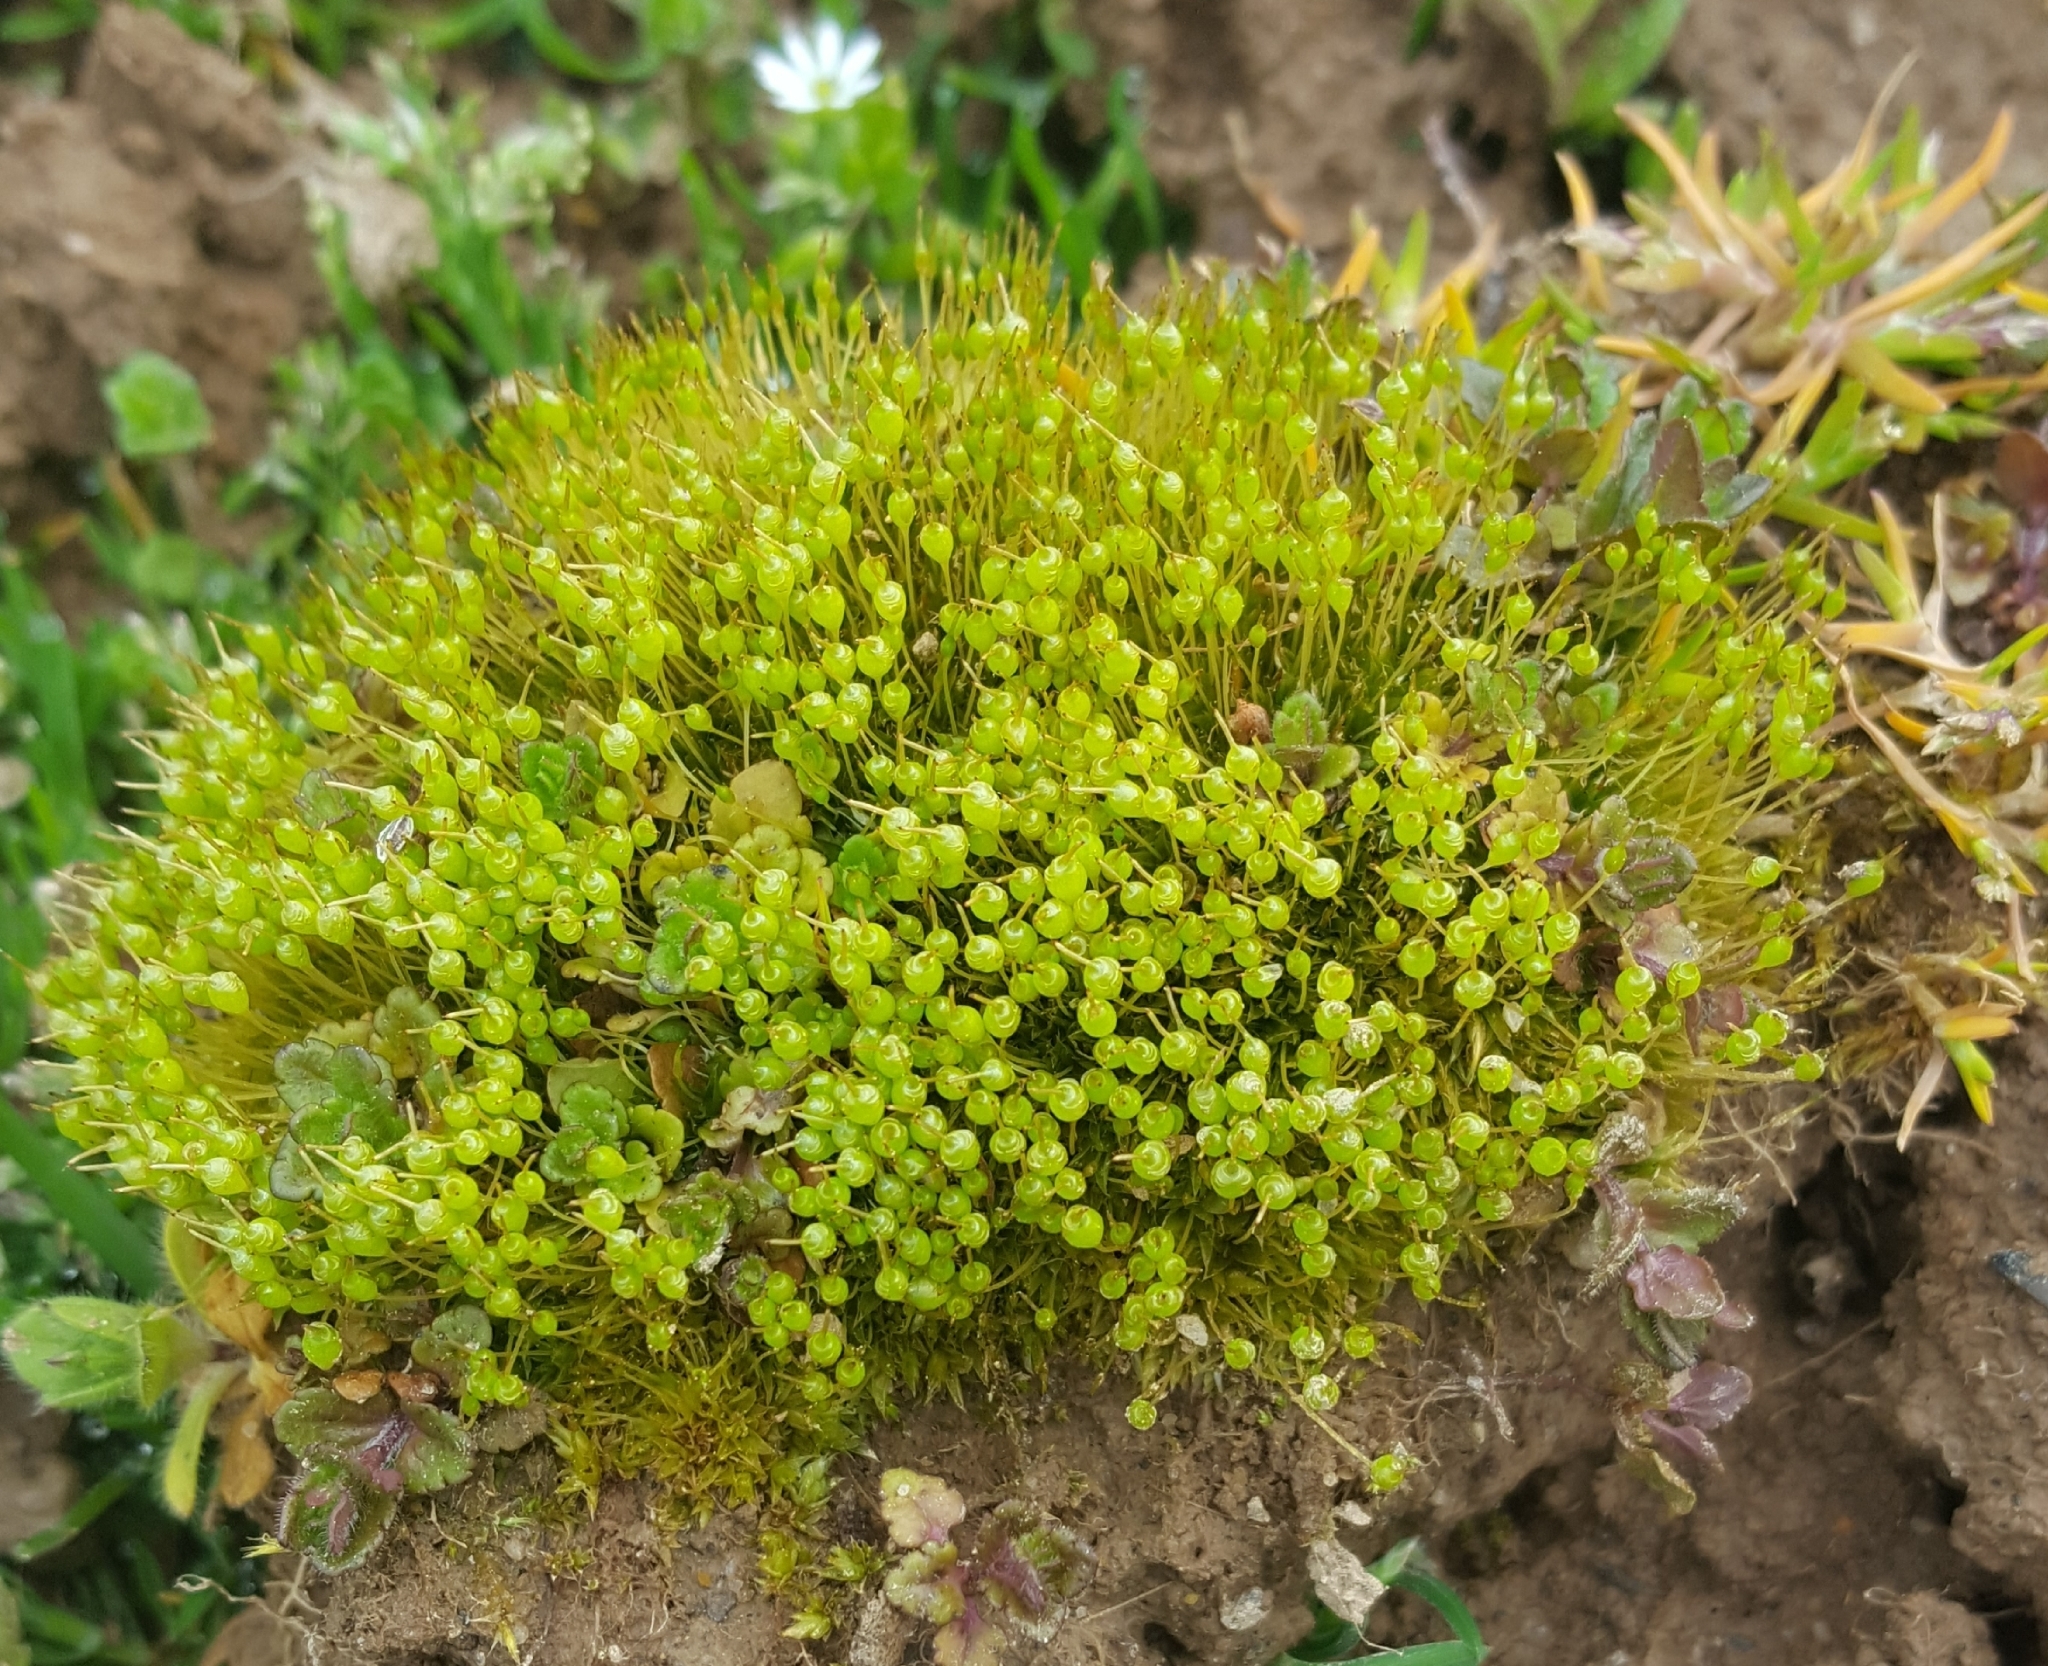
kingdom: Plantae
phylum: Bryophyta
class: Bryopsida
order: Funariales
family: Funariaceae
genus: Physcomitrium
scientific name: Physcomitrium pyriforme
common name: Common bladder-moss
